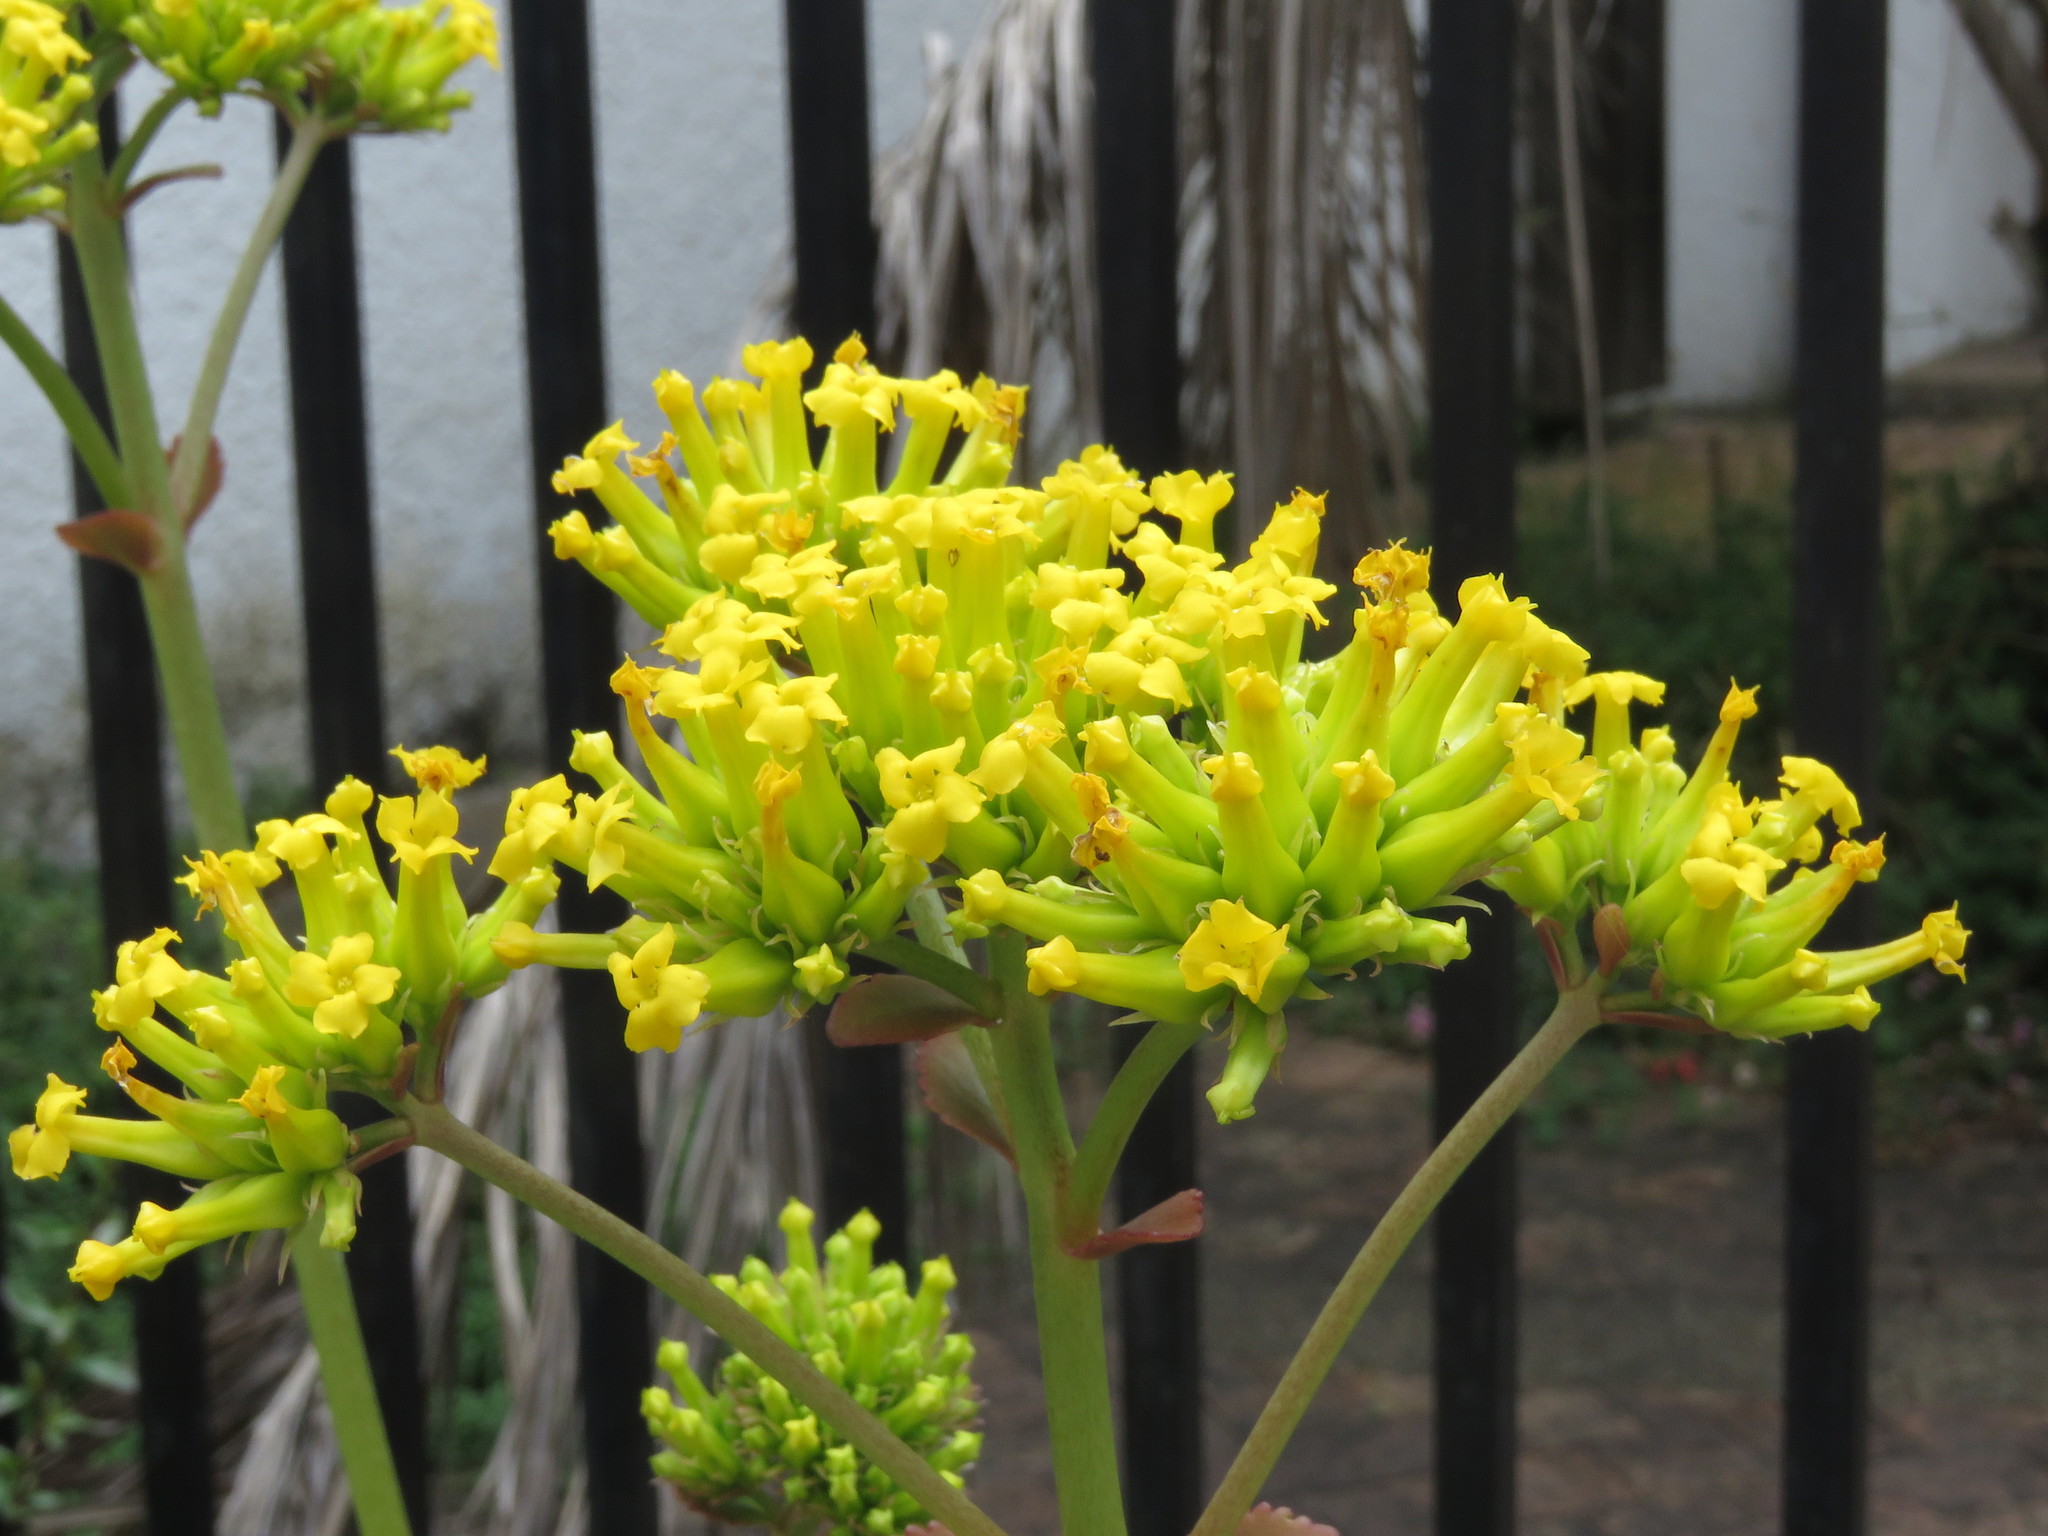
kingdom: Plantae
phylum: Tracheophyta
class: Magnoliopsida
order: Saxifragales
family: Crassulaceae
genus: Kalanchoe
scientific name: Kalanchoe densiflora
